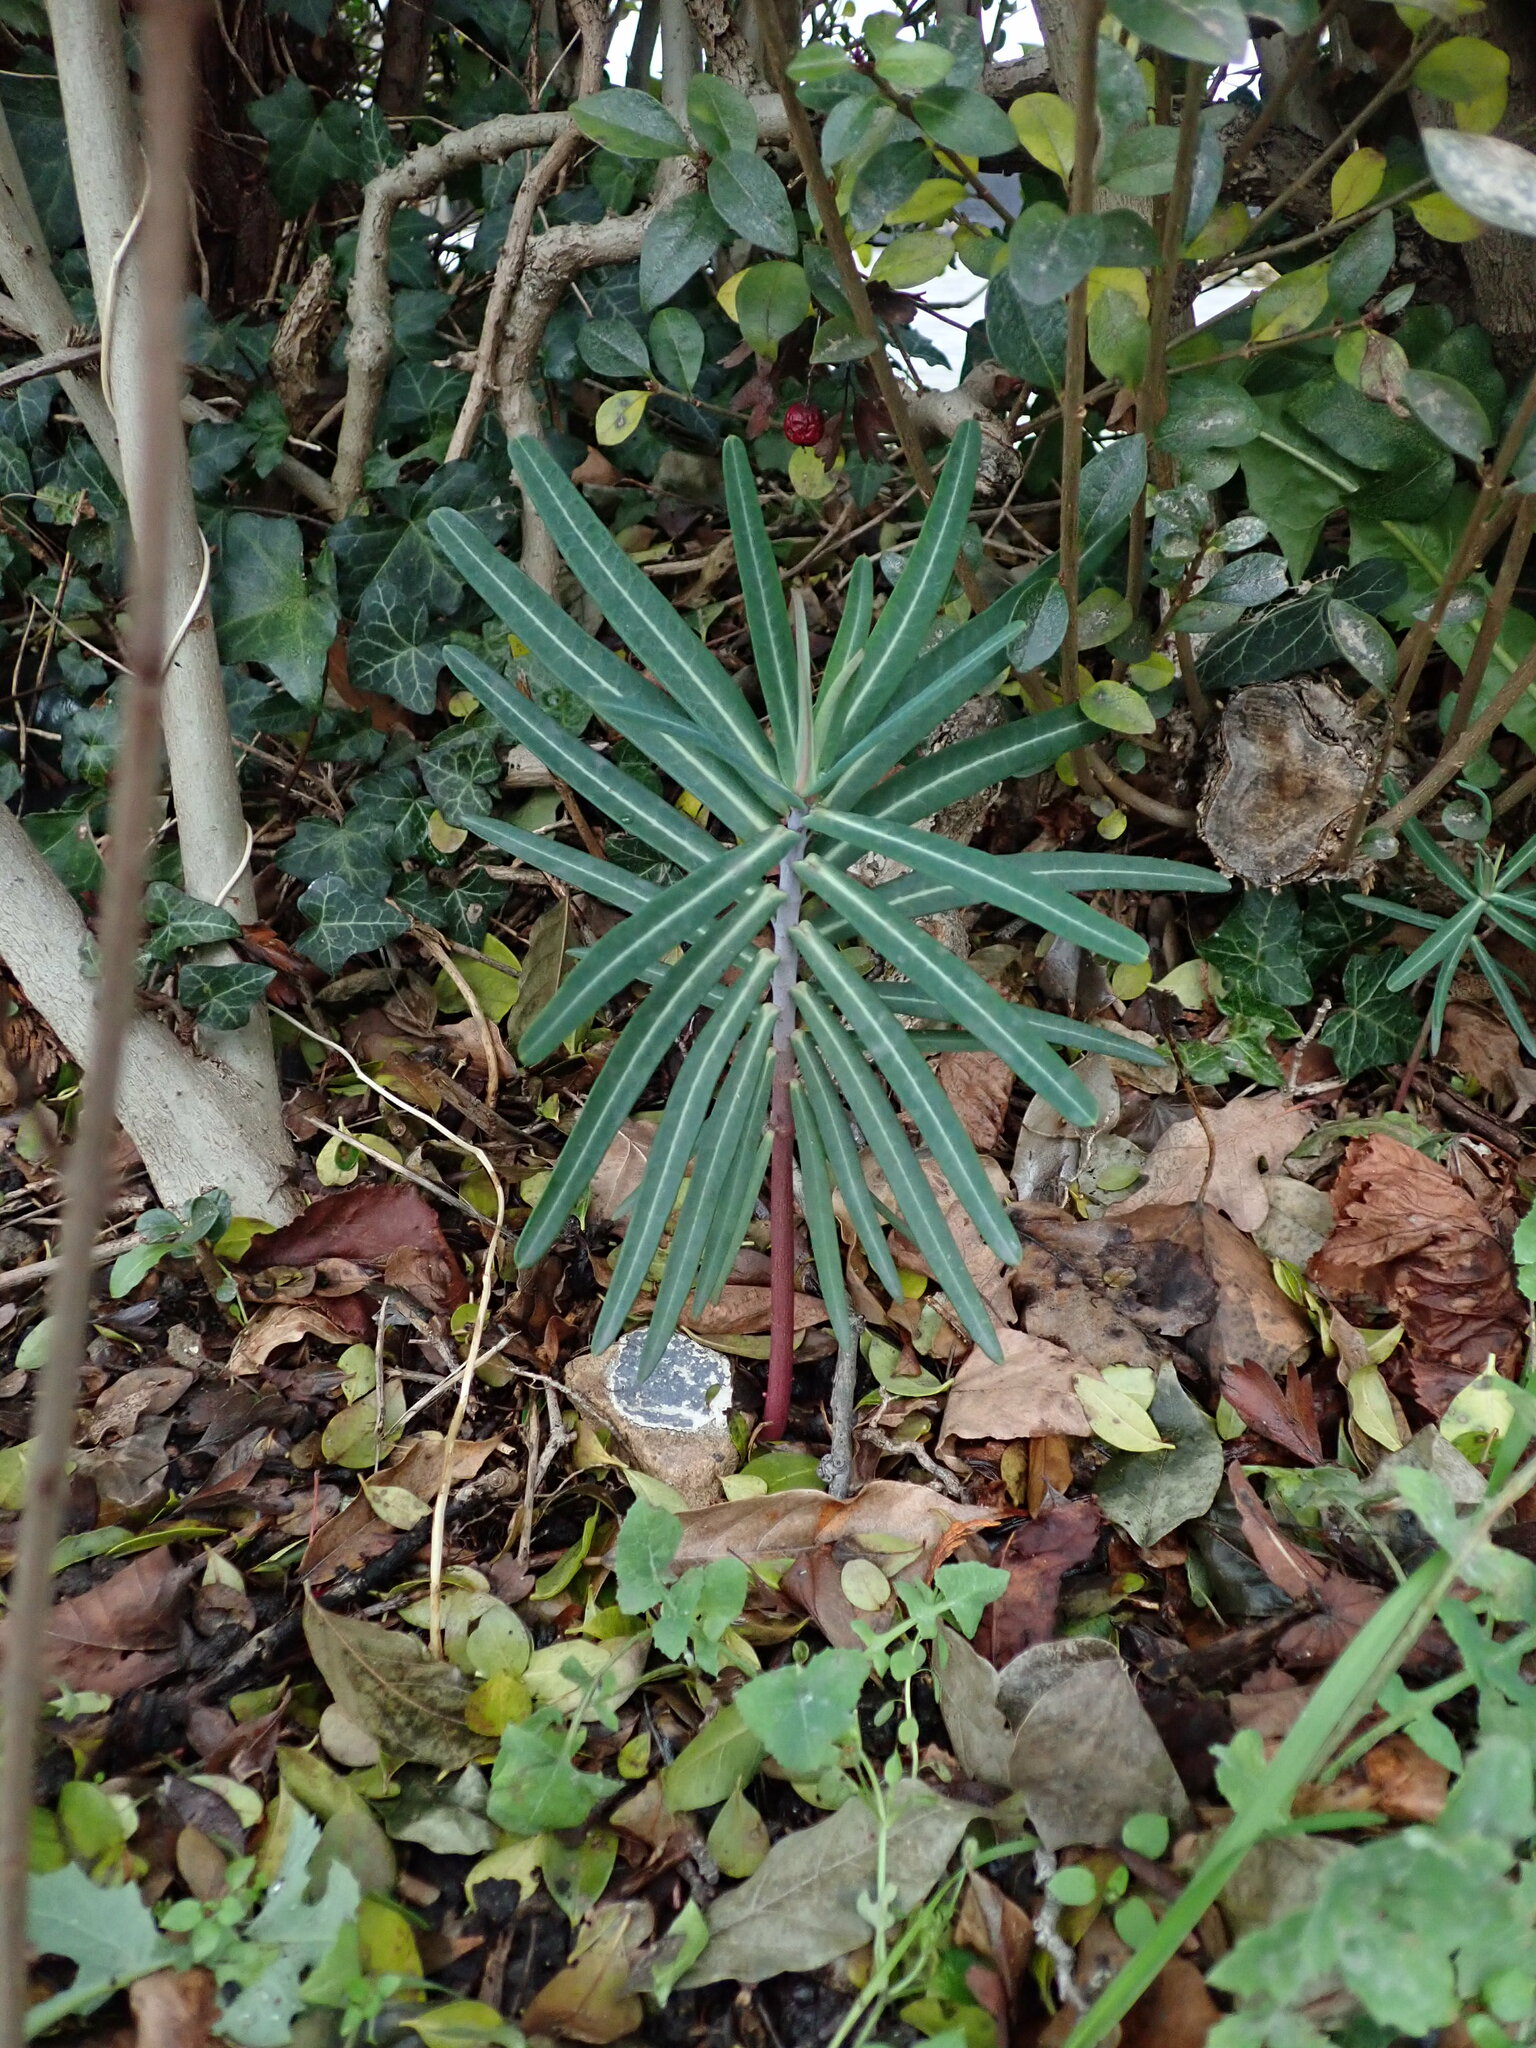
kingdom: Plantae
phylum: Tracheophyta
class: Magnoliopsida
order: Malpighiales
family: Euphorbiaceae
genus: Euphorbia
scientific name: Euphorbia lathyris
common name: Caper spurge
